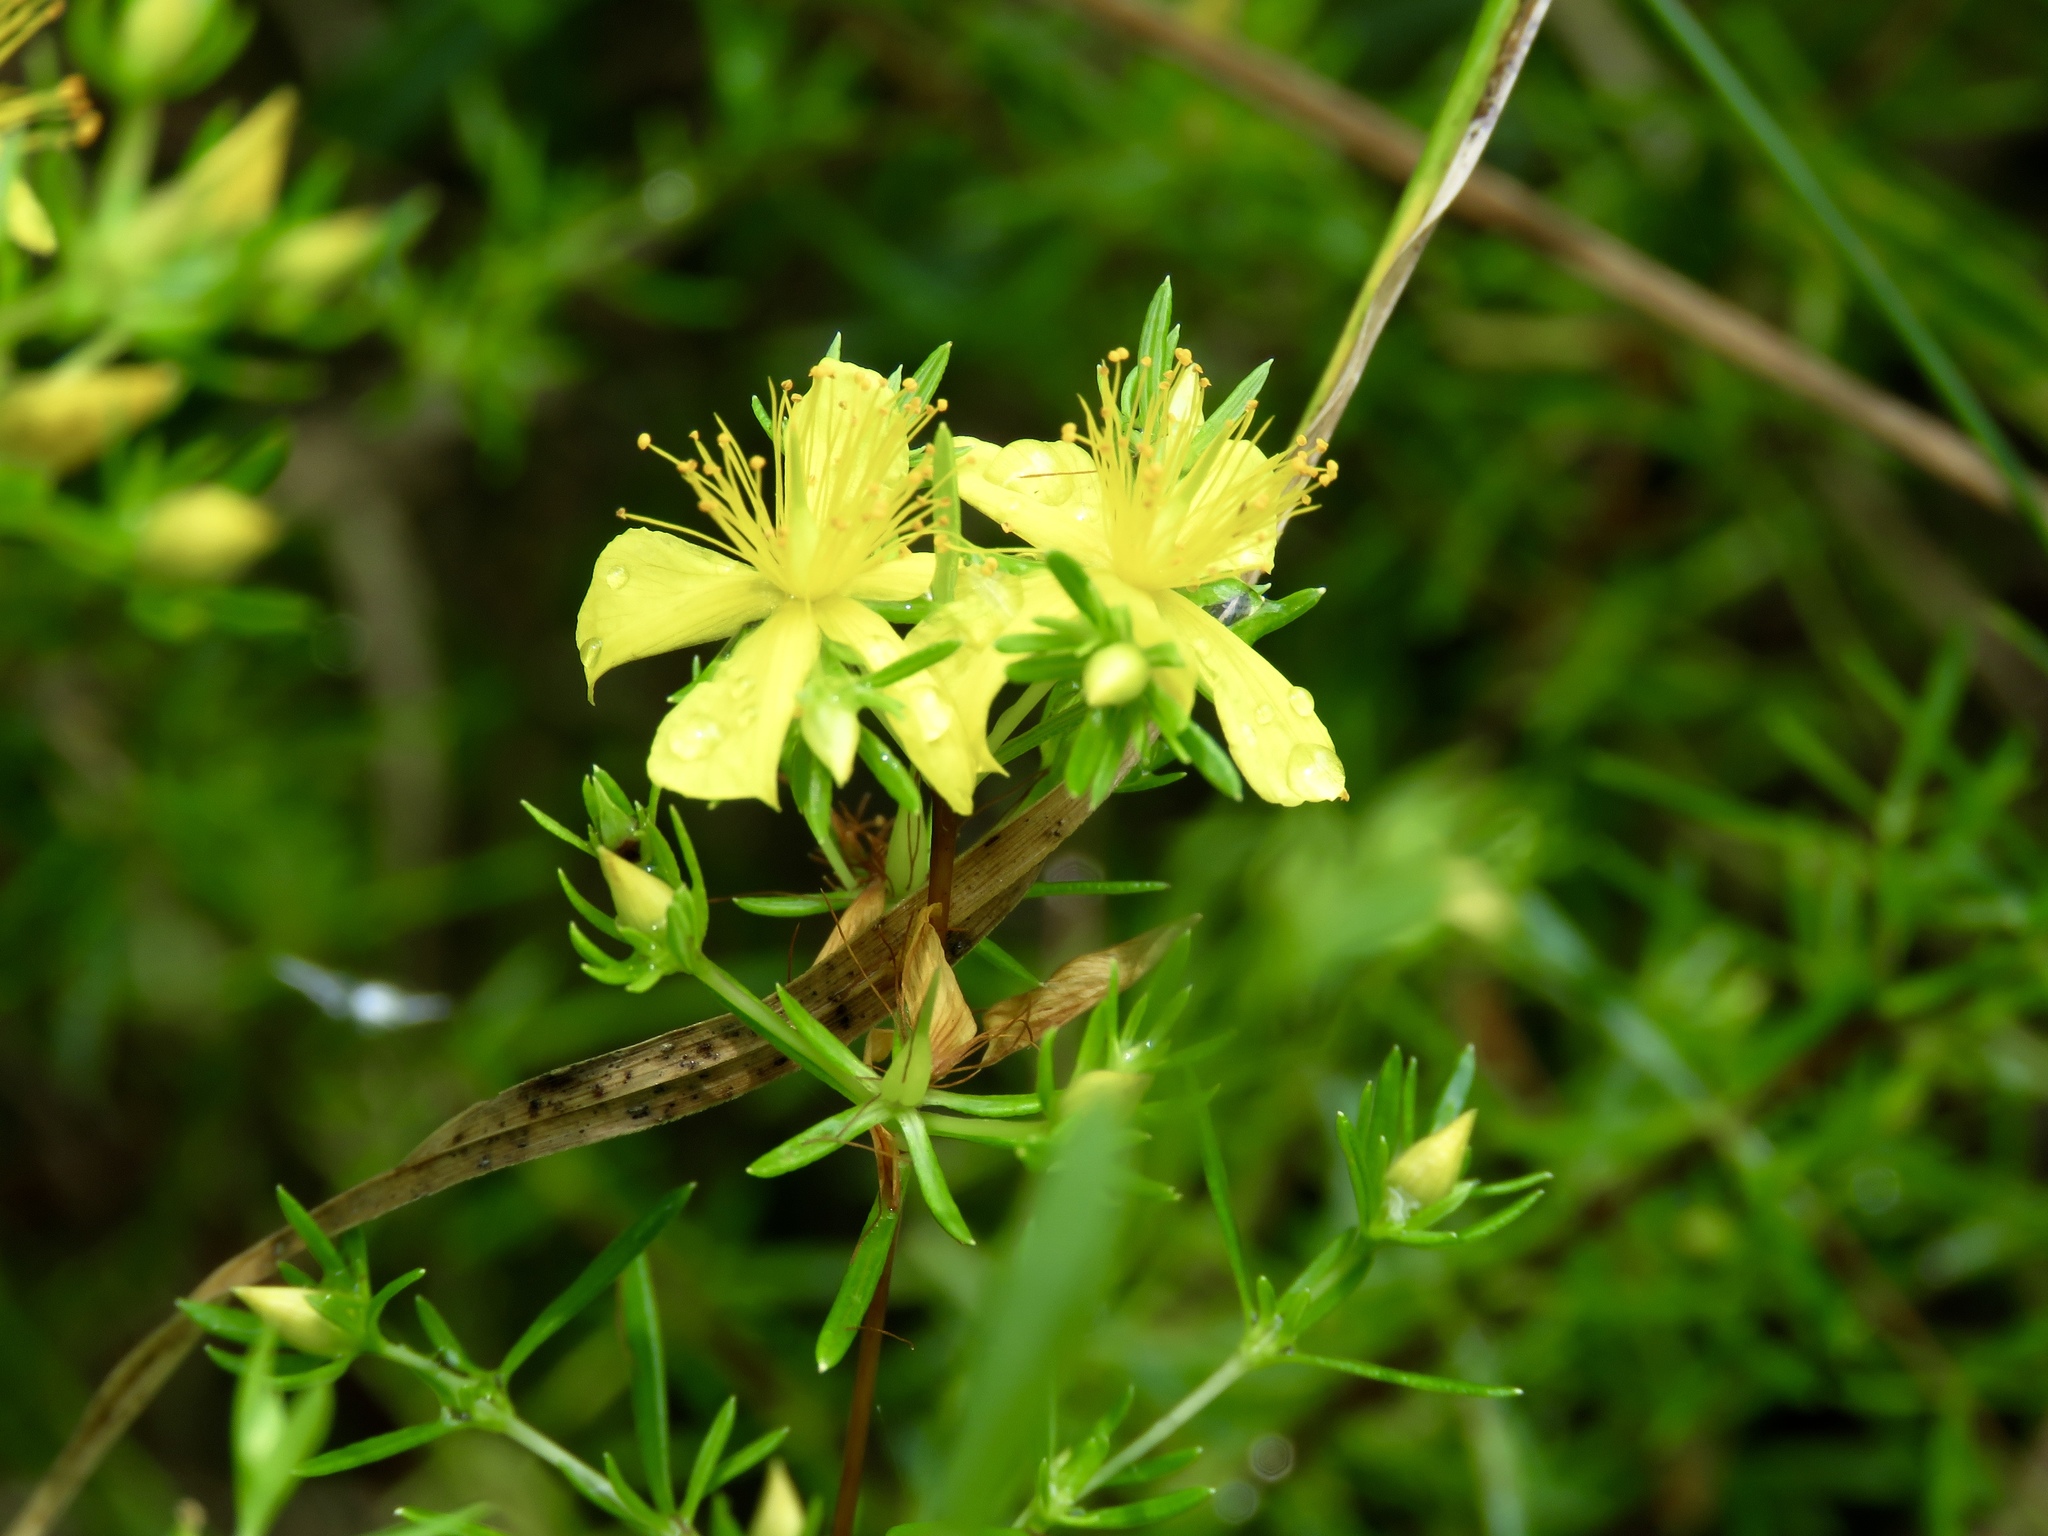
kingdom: Plantae
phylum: Tracheophyta
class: Magnoliopsida
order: Malpighiales
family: Hypericaceae
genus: Hypericum
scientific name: Hypericum galioides
